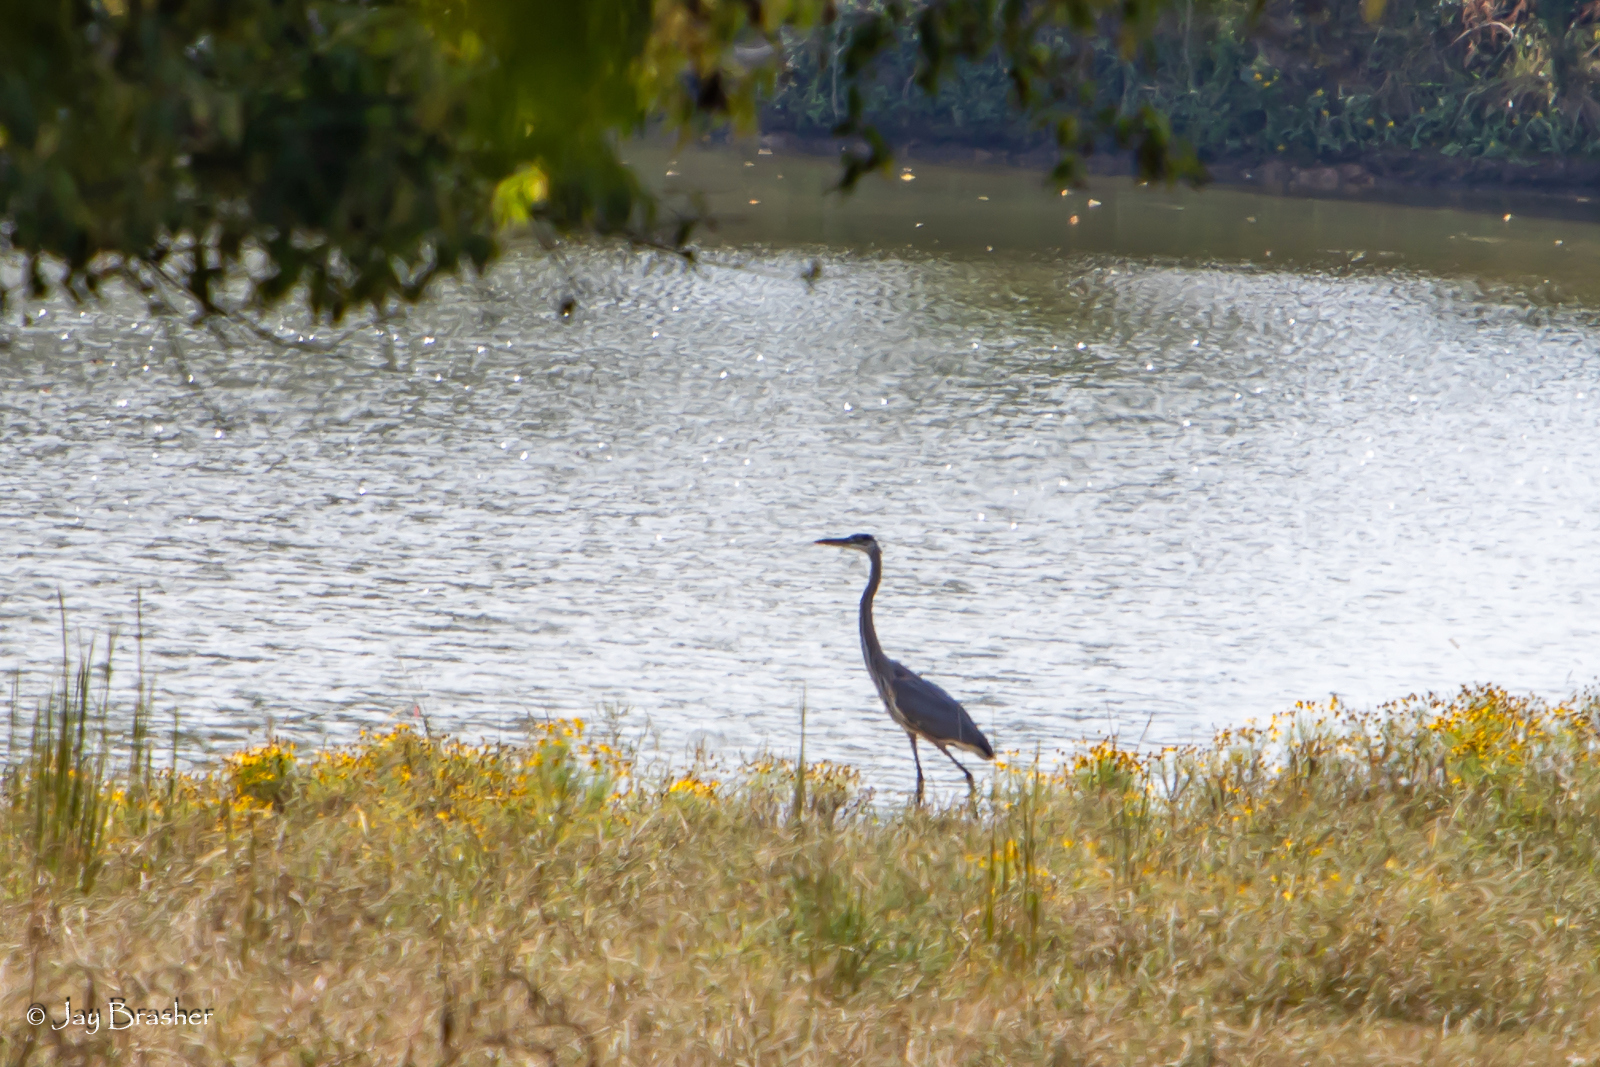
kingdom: Animalia
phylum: Chordata
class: Aves
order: Pelecaniformes
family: Ardeidae
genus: Ardea
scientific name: Ardea herodias
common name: Great blue heron
